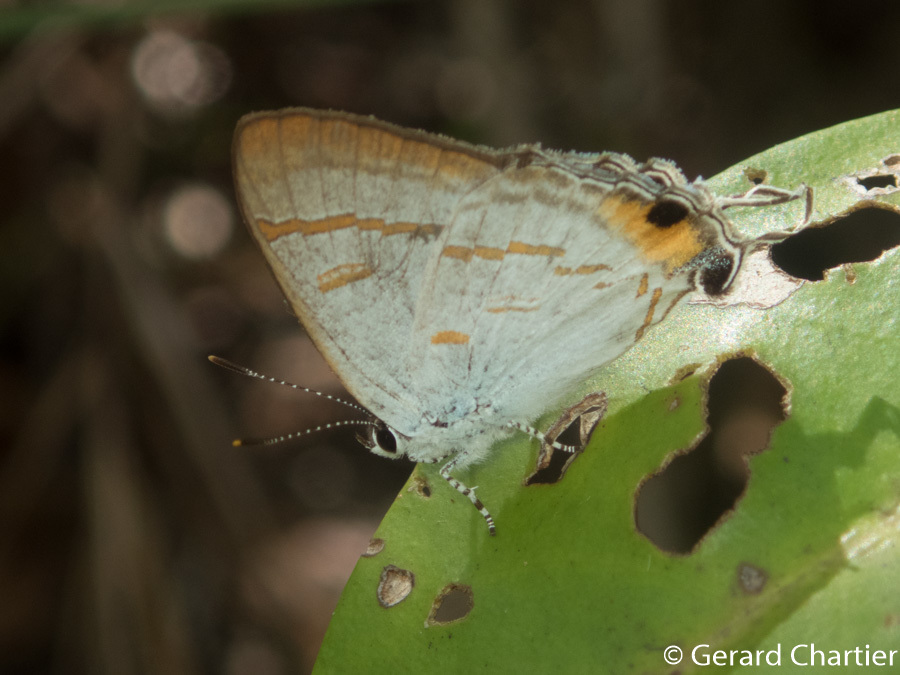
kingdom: Animalia
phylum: Arthropoda
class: Insecta
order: Lepidoptera
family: Lycaenidae
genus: Hypolycaena
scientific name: Hypolycaena thecloides
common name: Dark tit
